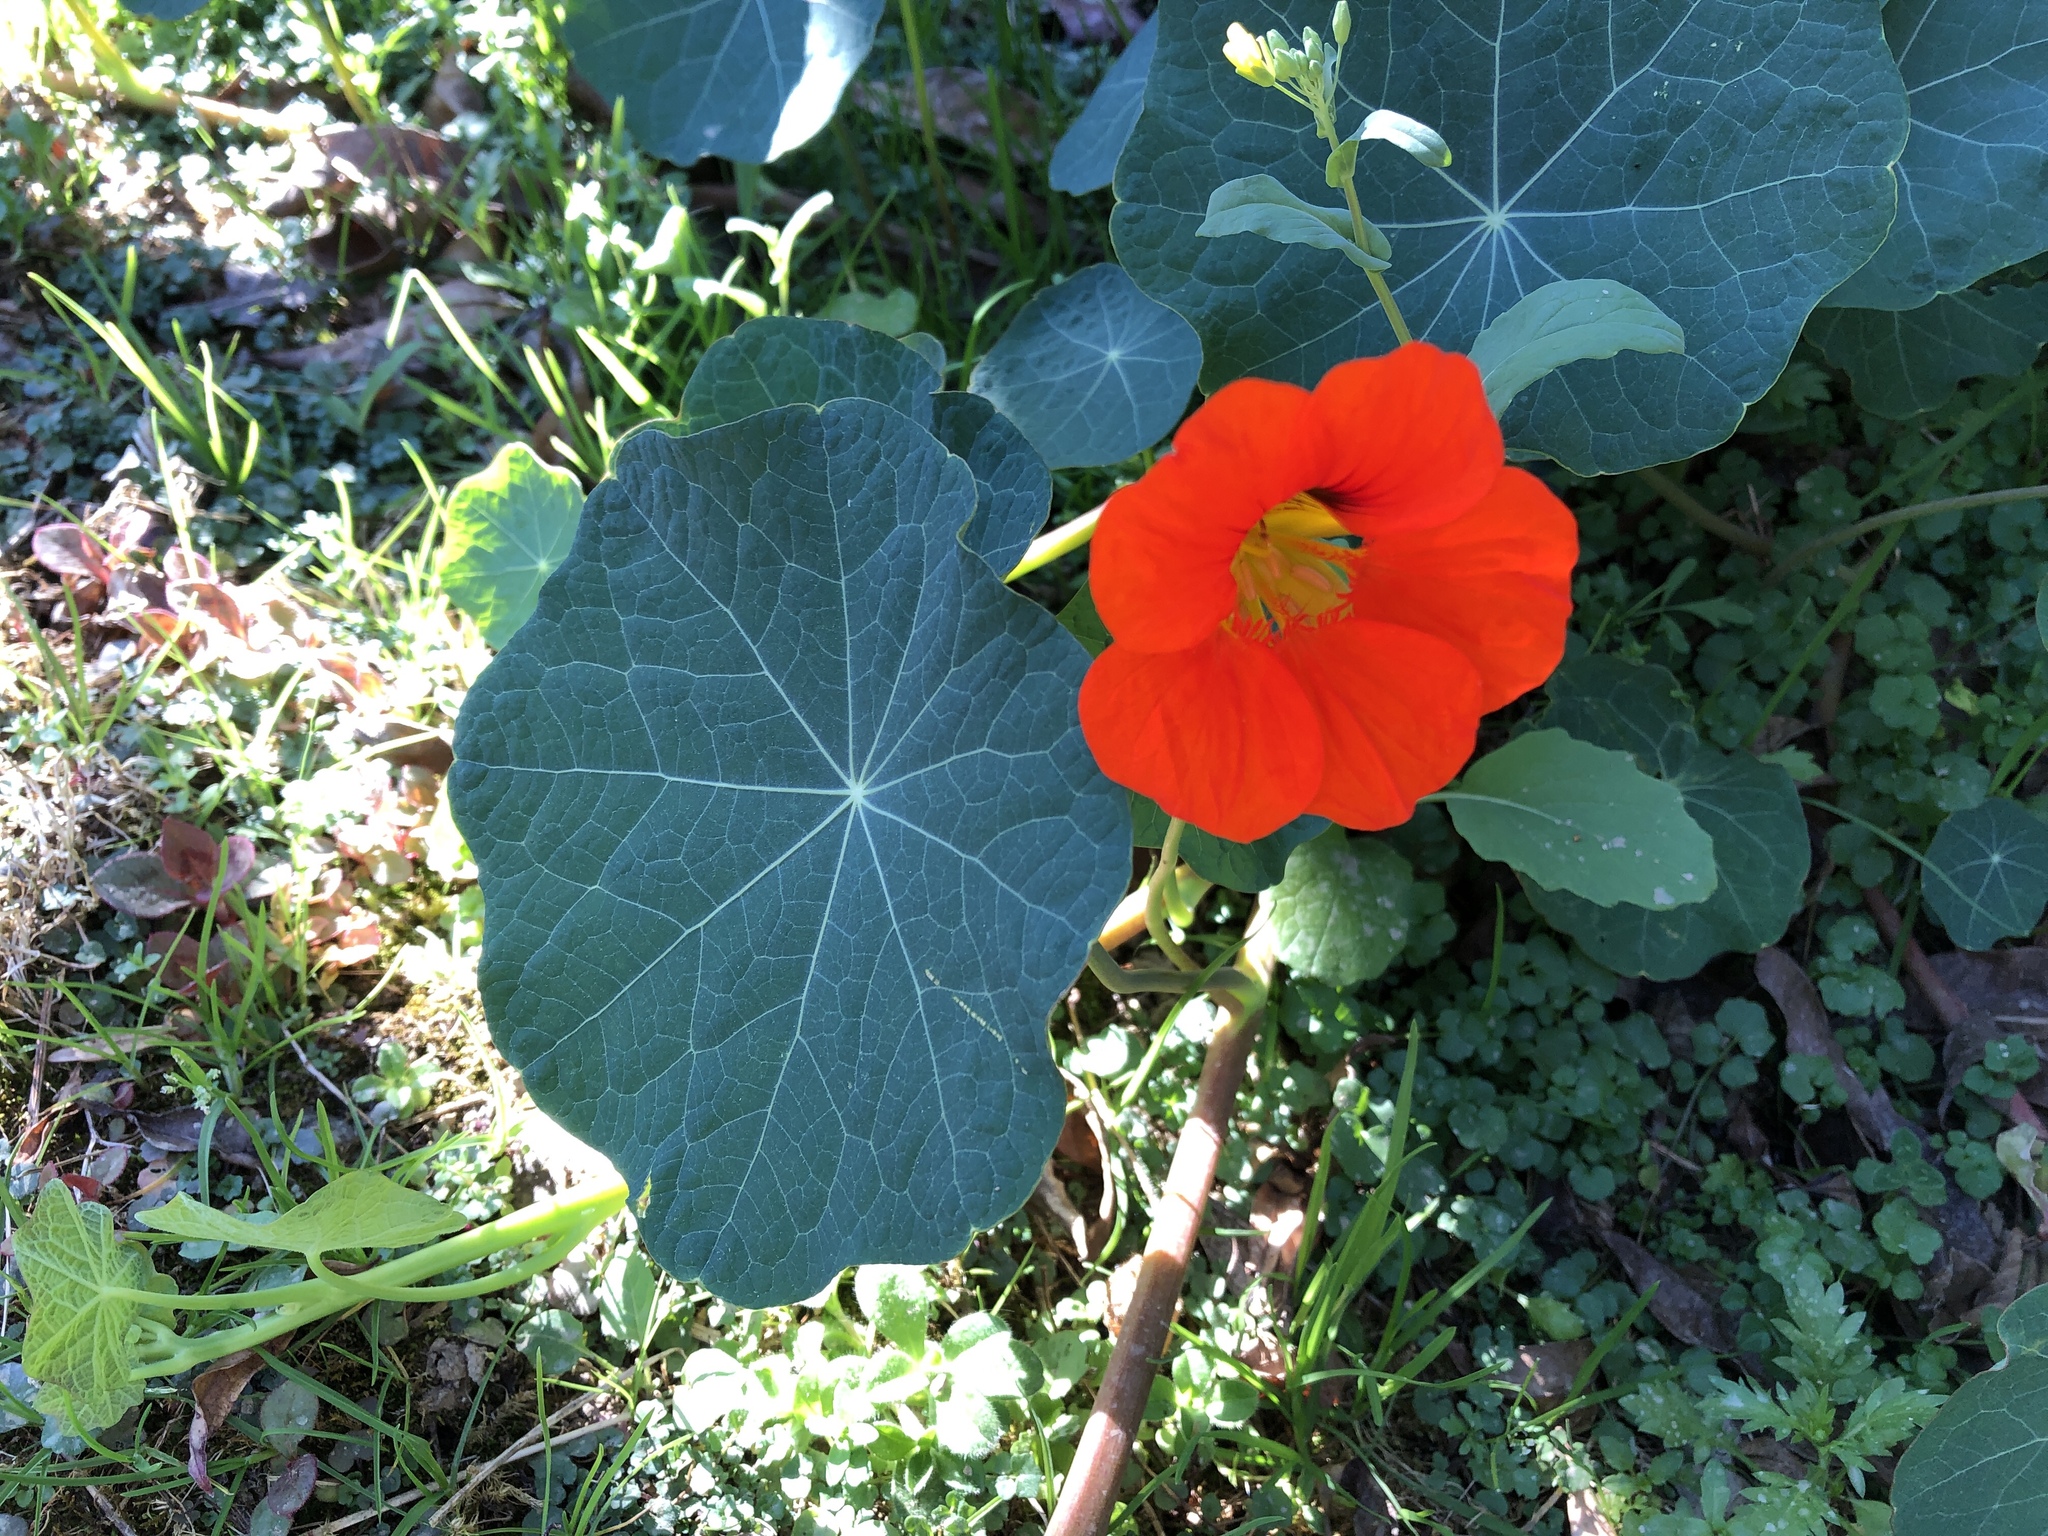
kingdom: Plantae
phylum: Tracheophyta
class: Magnoliopsida
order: Brassicales
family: Tropaeolaceae
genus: Tropaeolum
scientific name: Tropaeolum majus
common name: Nasturtium
